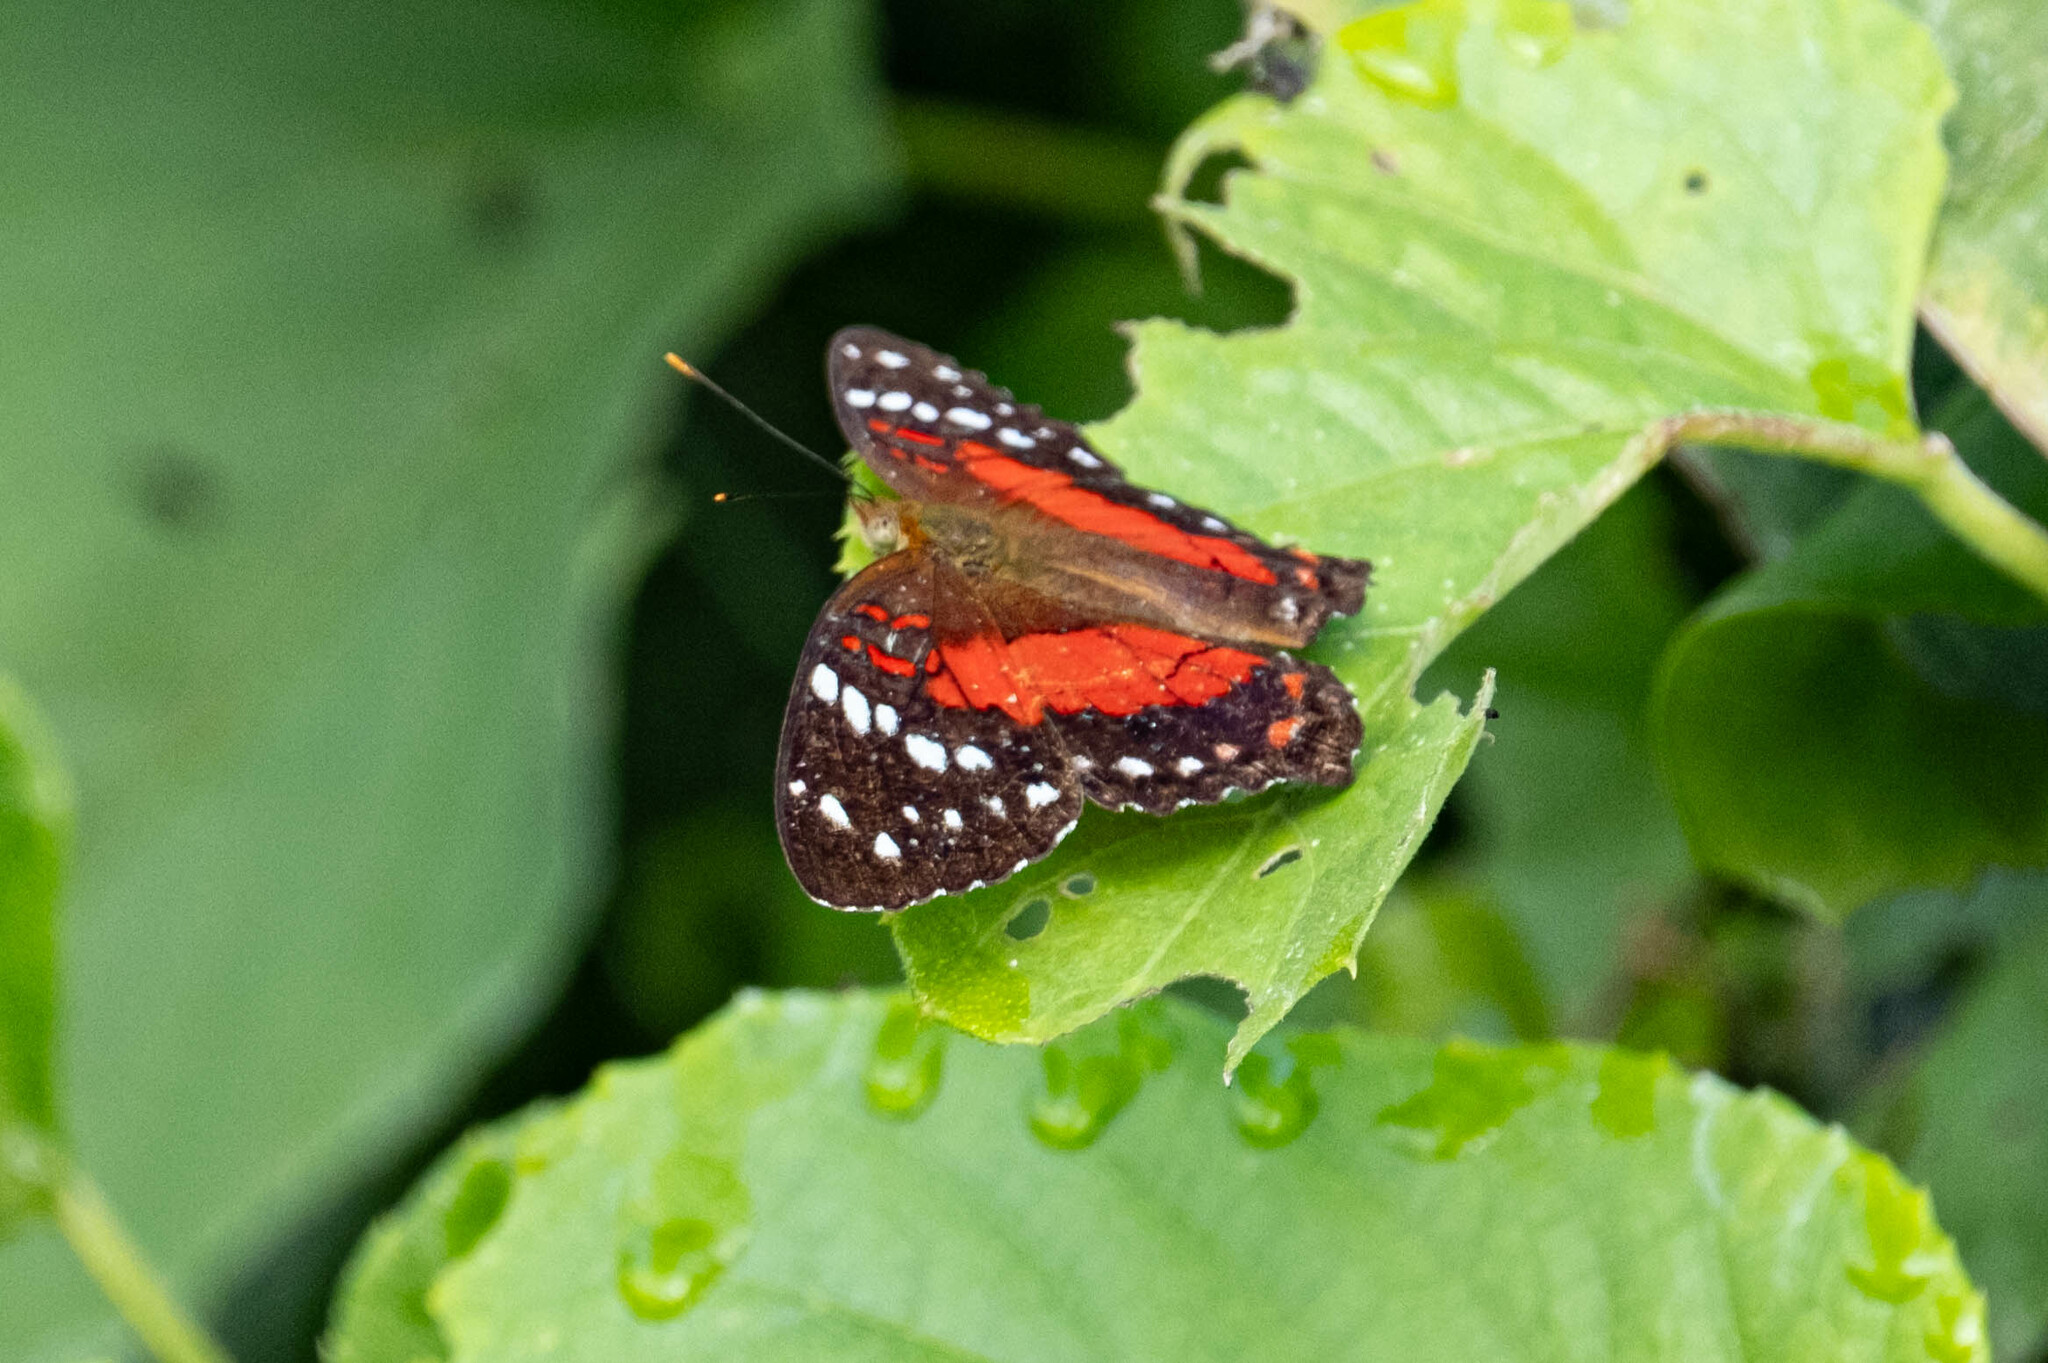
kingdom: Animalia
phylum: Arthropoda
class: Insecta
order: Lepidoptera
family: Nymphalidae
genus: Anartia
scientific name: Anartia amathea
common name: Red peacock
